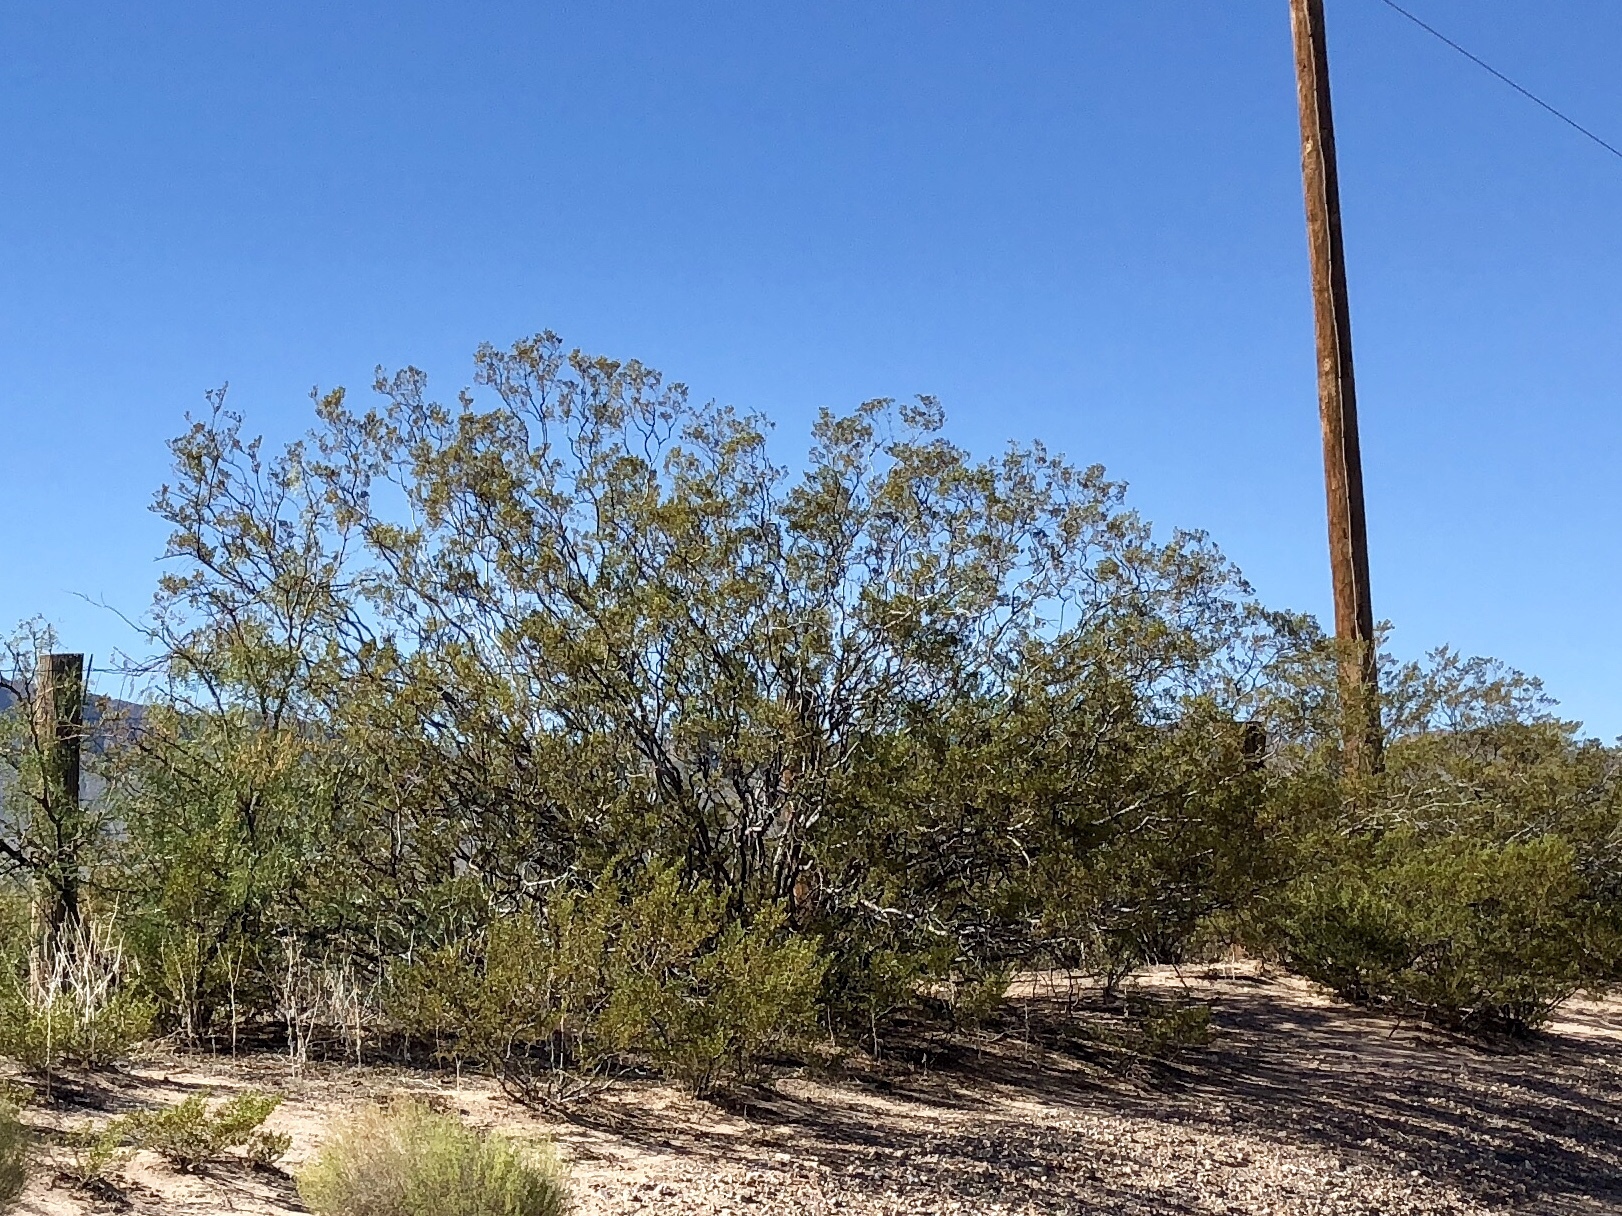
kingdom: Plantae
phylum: Tracheophyta
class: Magnoliopsida
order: Zygophyllales
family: Zygophyllaceae
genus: Larrea
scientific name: Larrea tridentata
